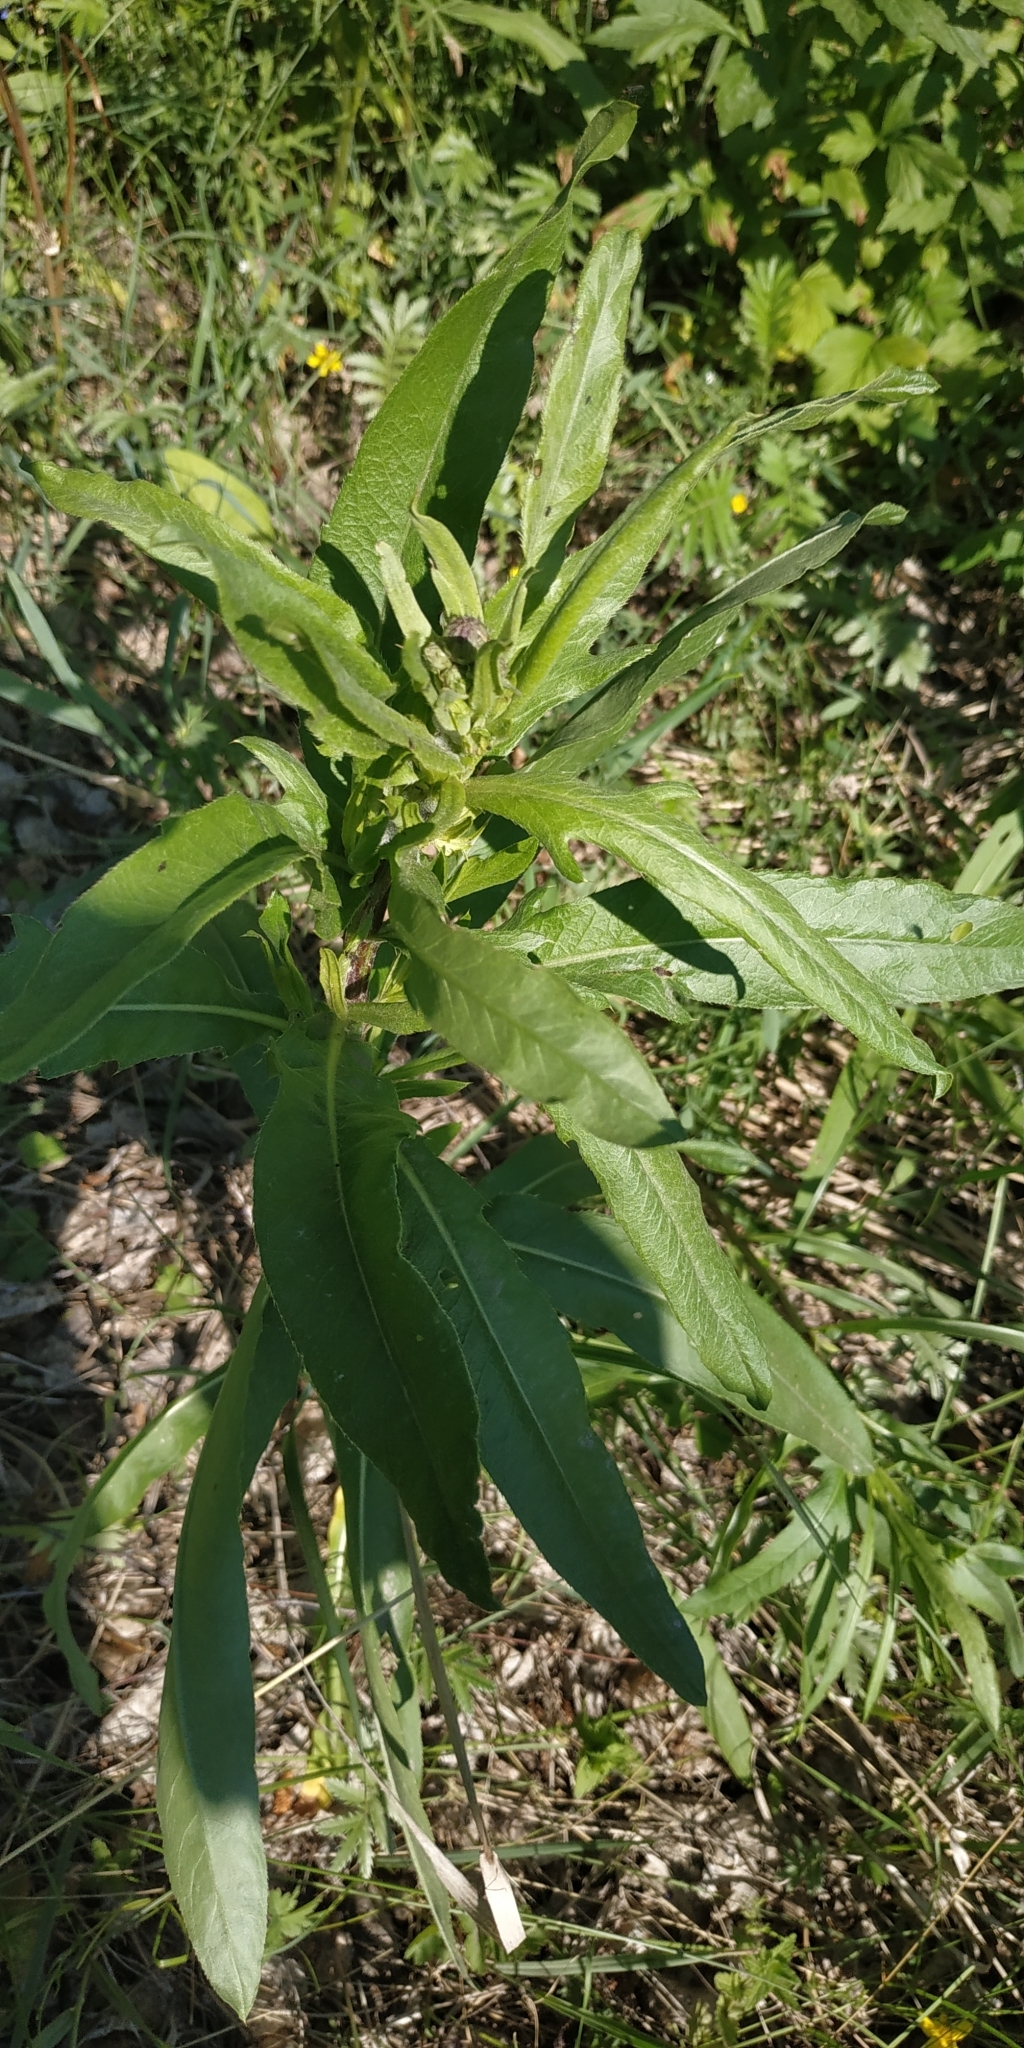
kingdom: Plantae
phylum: Tracheophyta
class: Magnoliopsida
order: Asterales
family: Asteraceae
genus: Cirsium
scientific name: Cirsium arvense
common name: Creeping thistle
